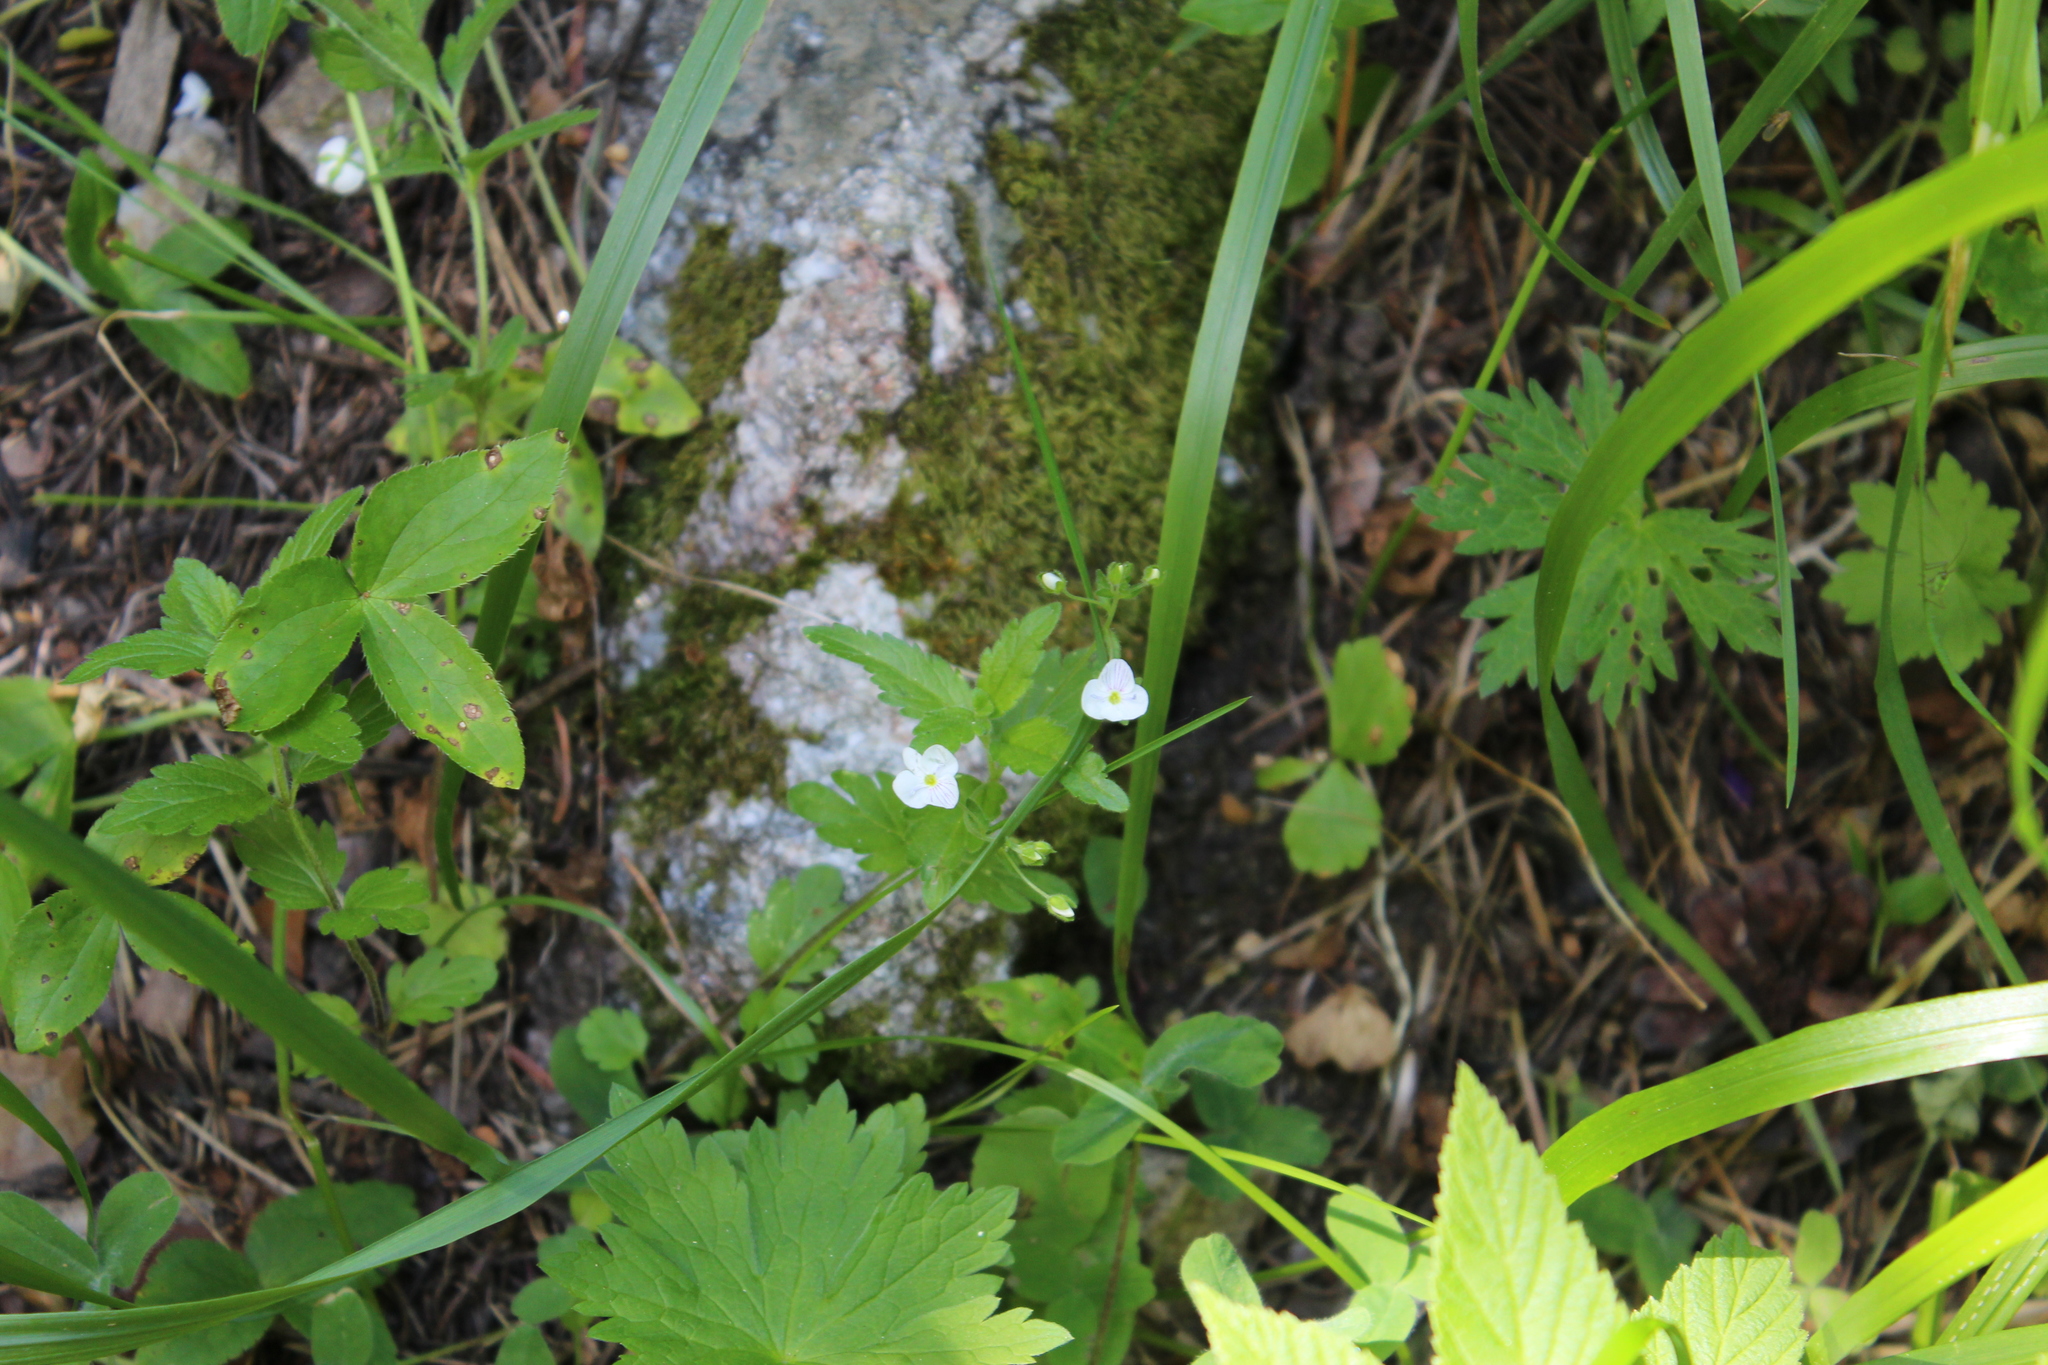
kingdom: Plantae
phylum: Tracheophyta
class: Magnoliopsida
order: Lamiales
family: Plantaginaceae
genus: Veronica
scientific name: Veronica peduncularis
